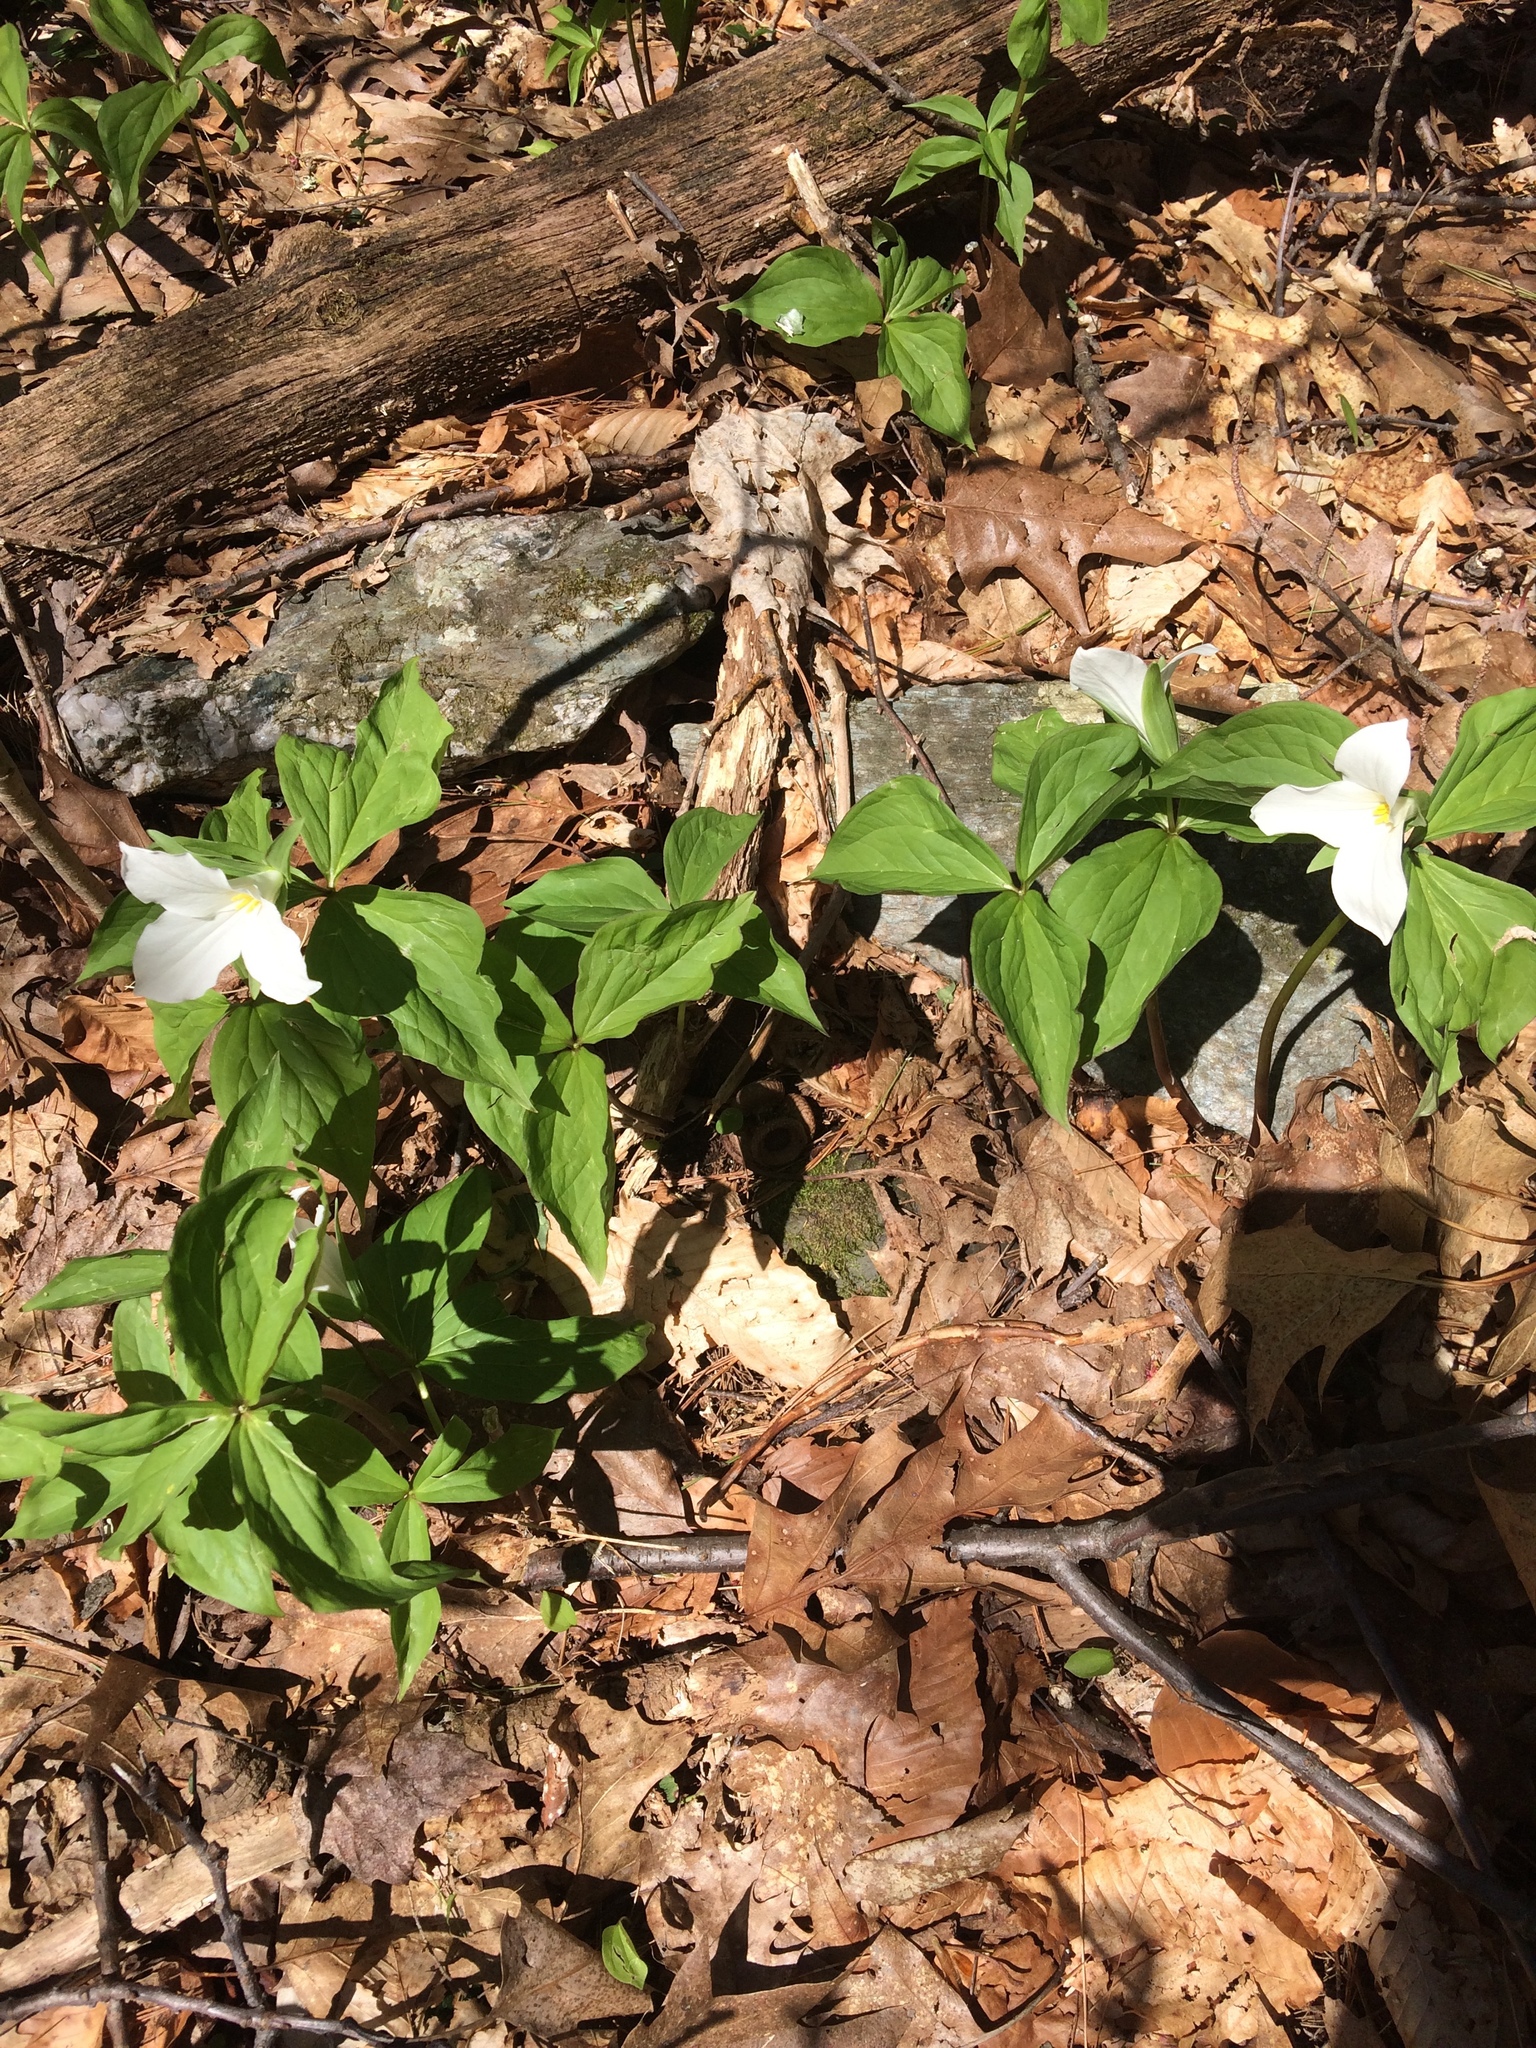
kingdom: Plantae
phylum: Tracheophyta
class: Liliopsida
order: Liliales
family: Melanthiaceae
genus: Trillium
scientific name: Trillium grandiflorum
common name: Great white trillium
